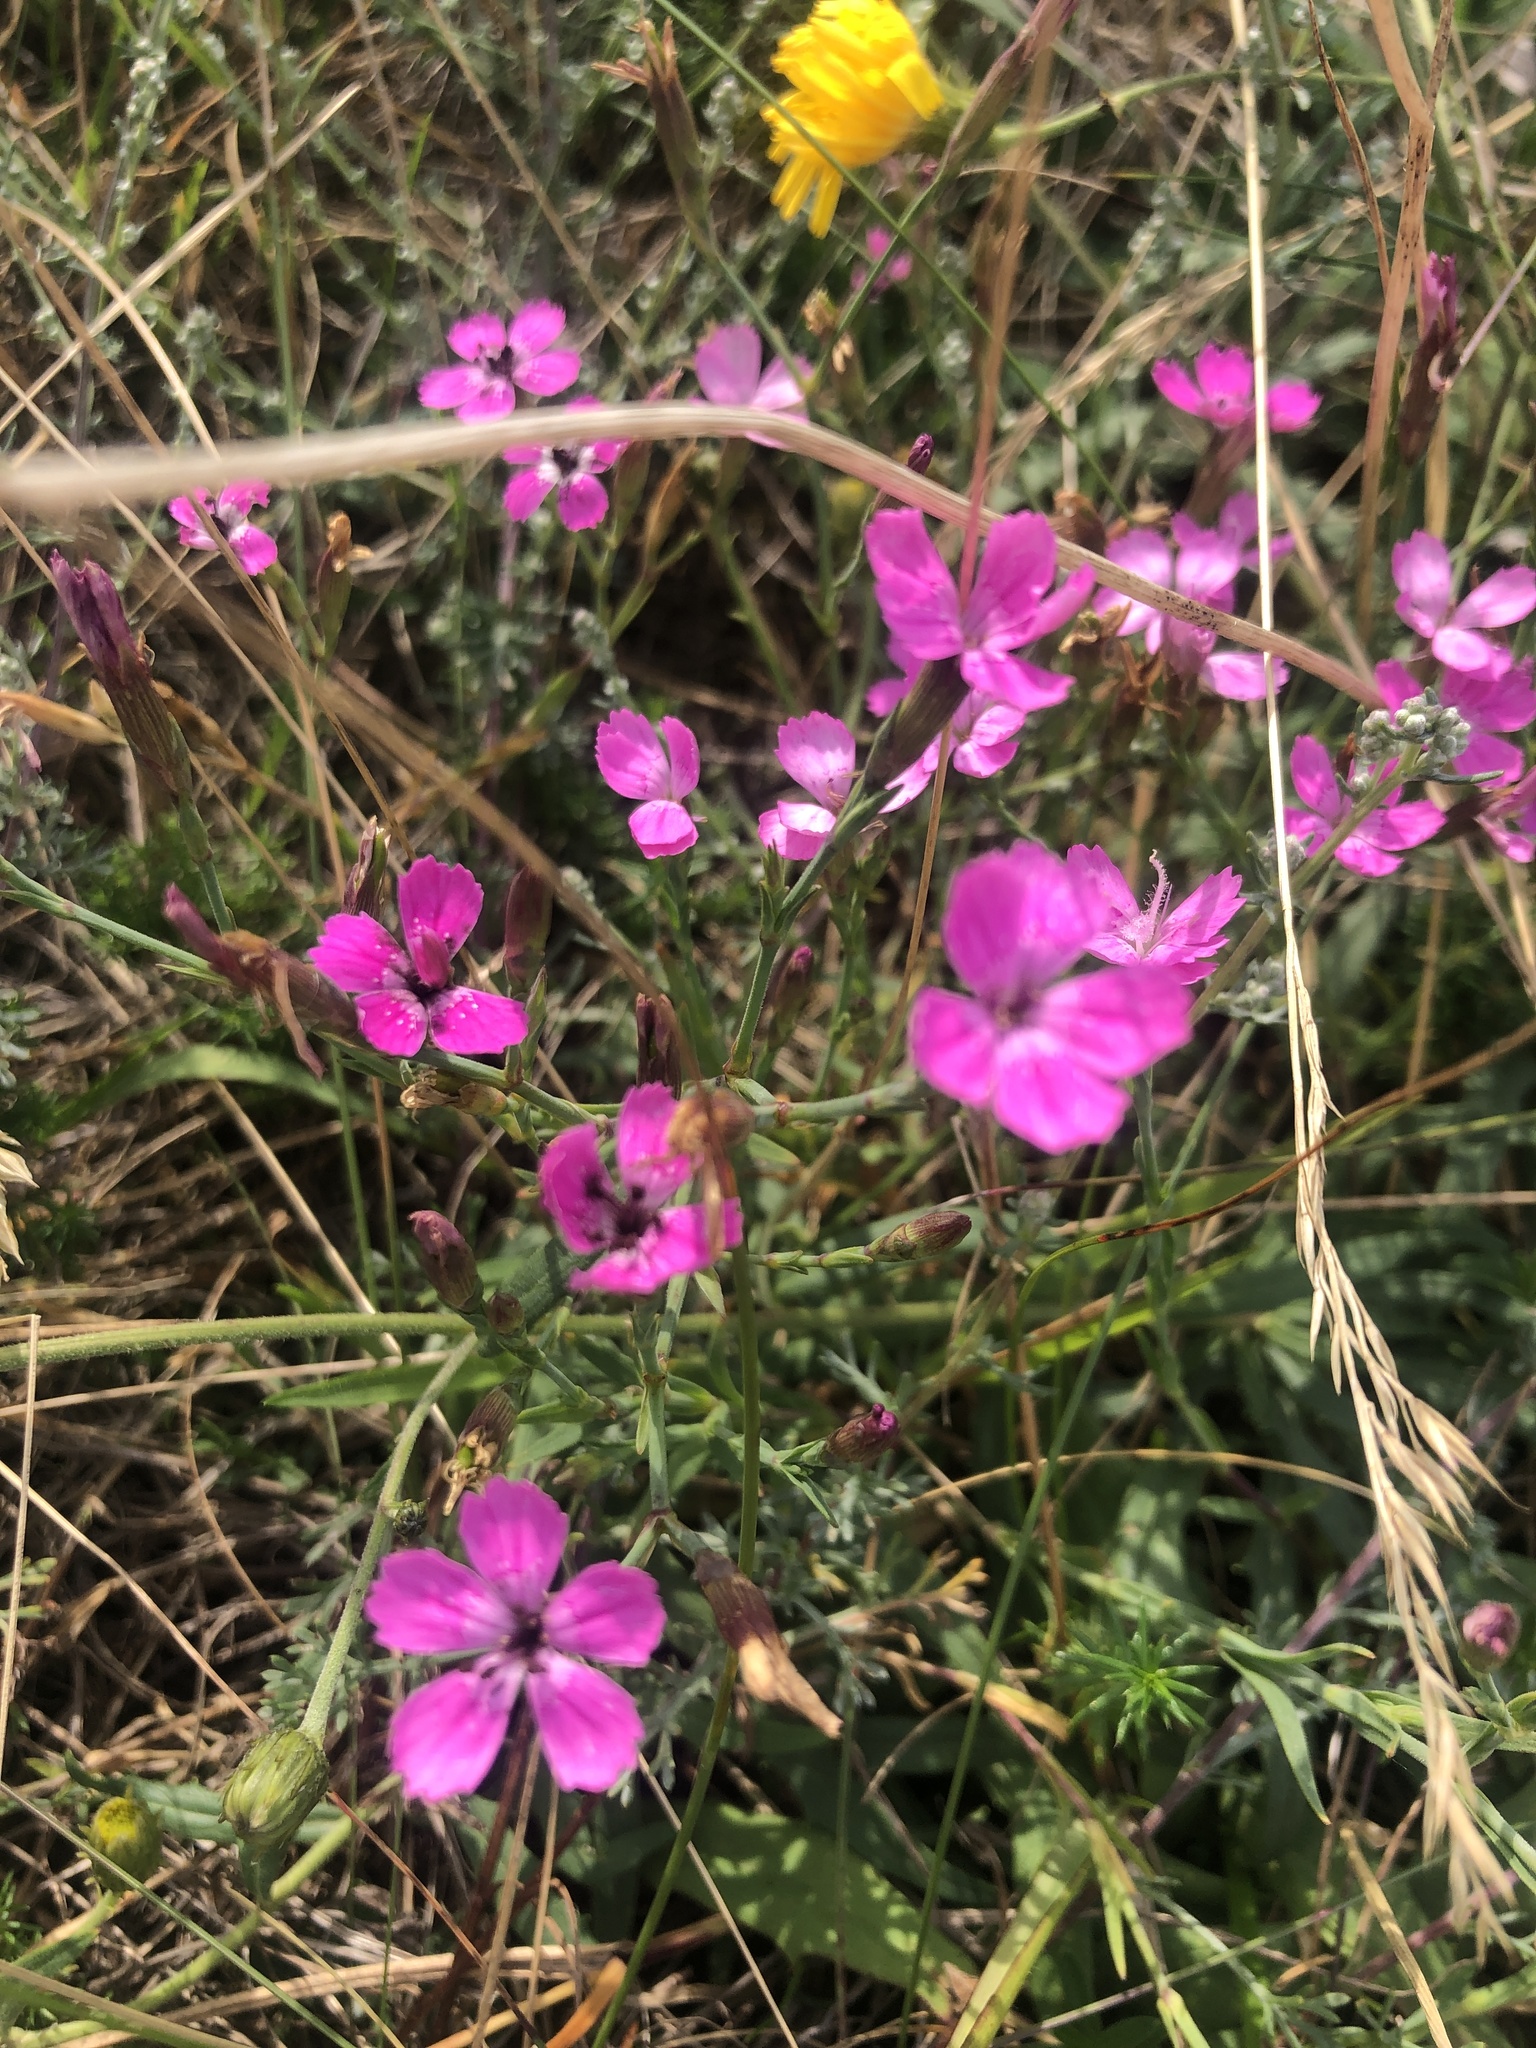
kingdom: Plantae
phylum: Tracheophyta
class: Magnoliopsida
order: Caryophyllales
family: Caryophyllaceae
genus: Dianthus
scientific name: Dianthus deltoides
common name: Maiden pink
